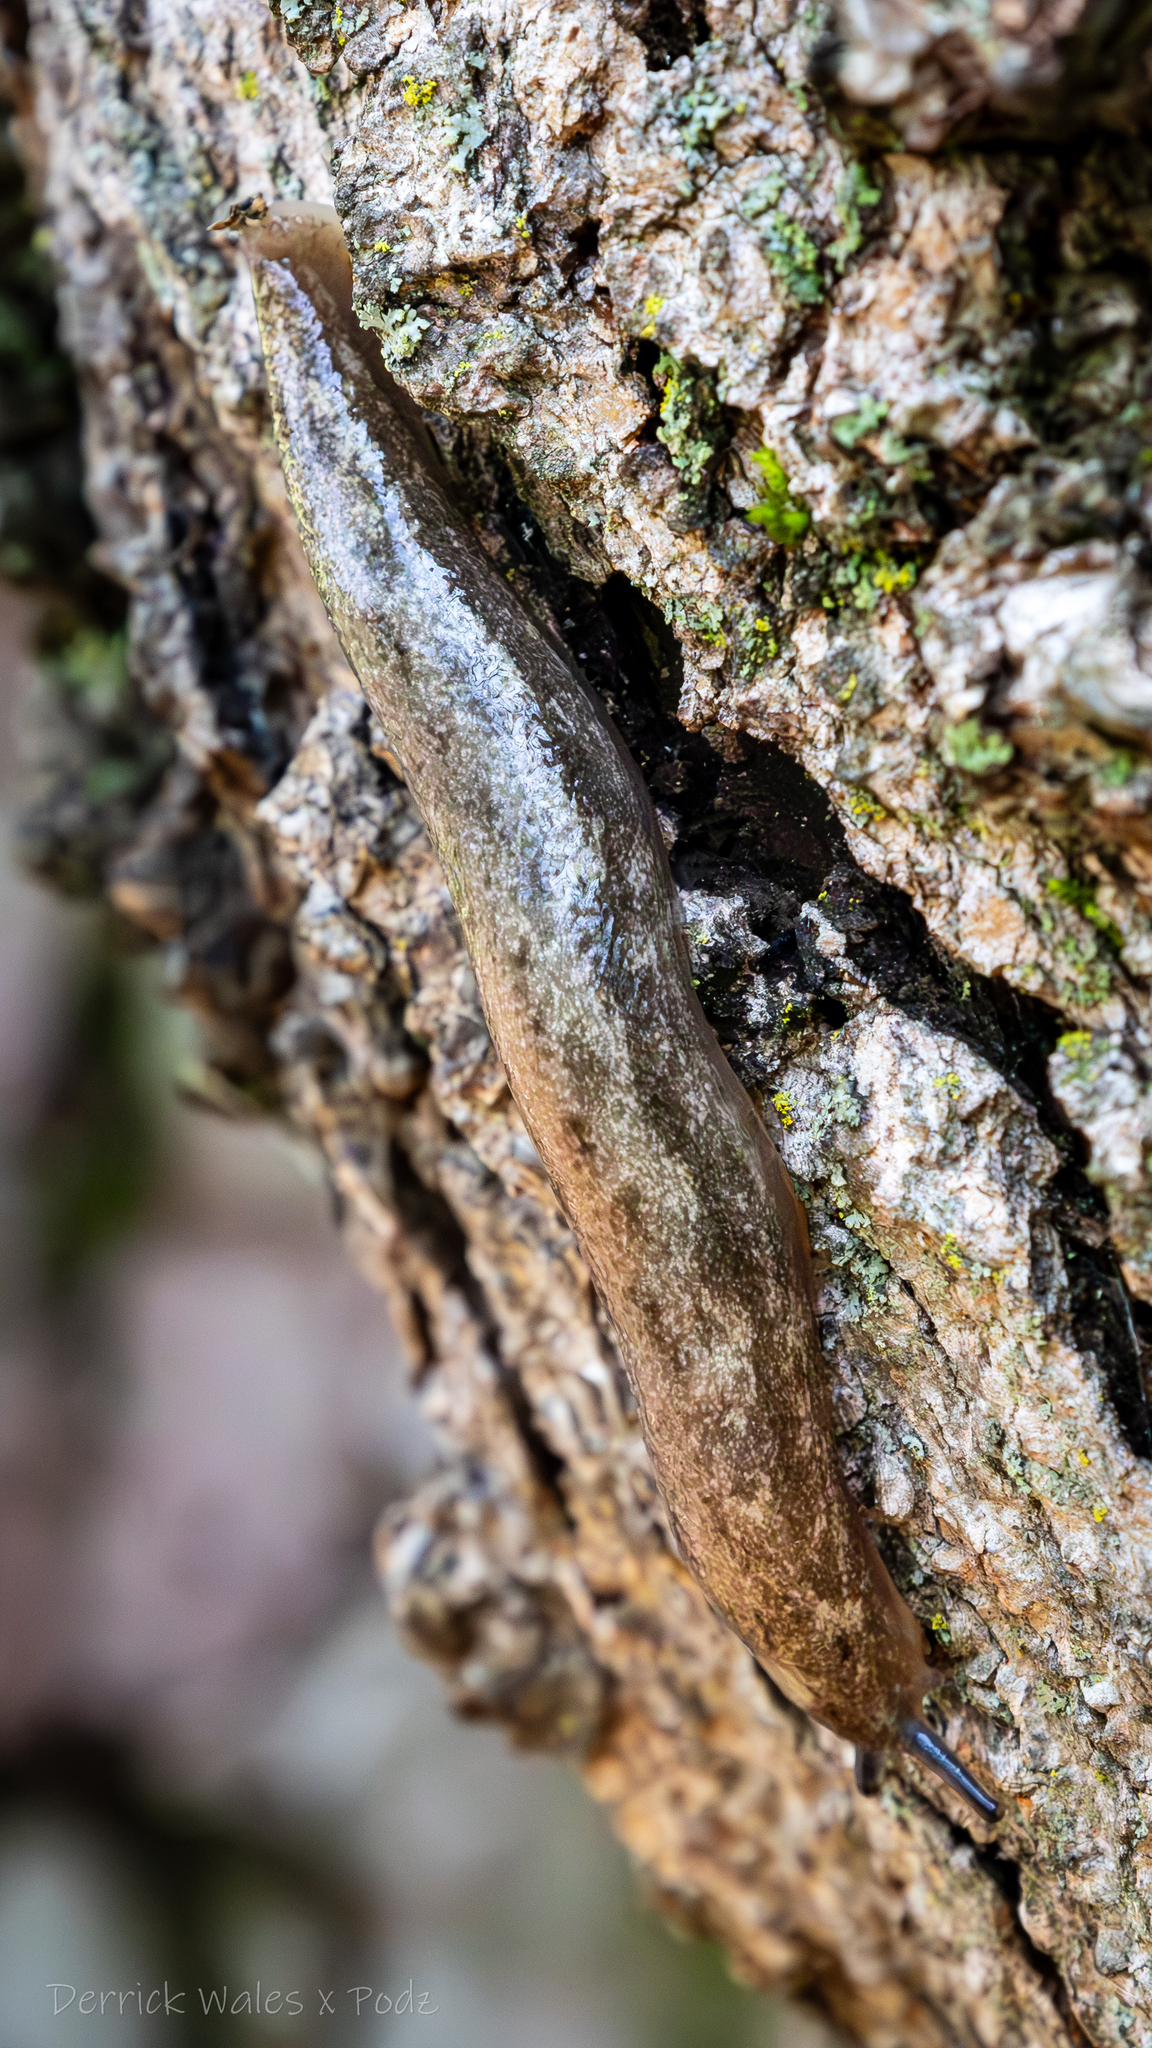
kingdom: Animalia
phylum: Mollusca
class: Gastropoda
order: Stylommatophora
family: Philomycidae
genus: Megapallifera
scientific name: Megapallifera mutabilis
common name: Changeable mantleslug
